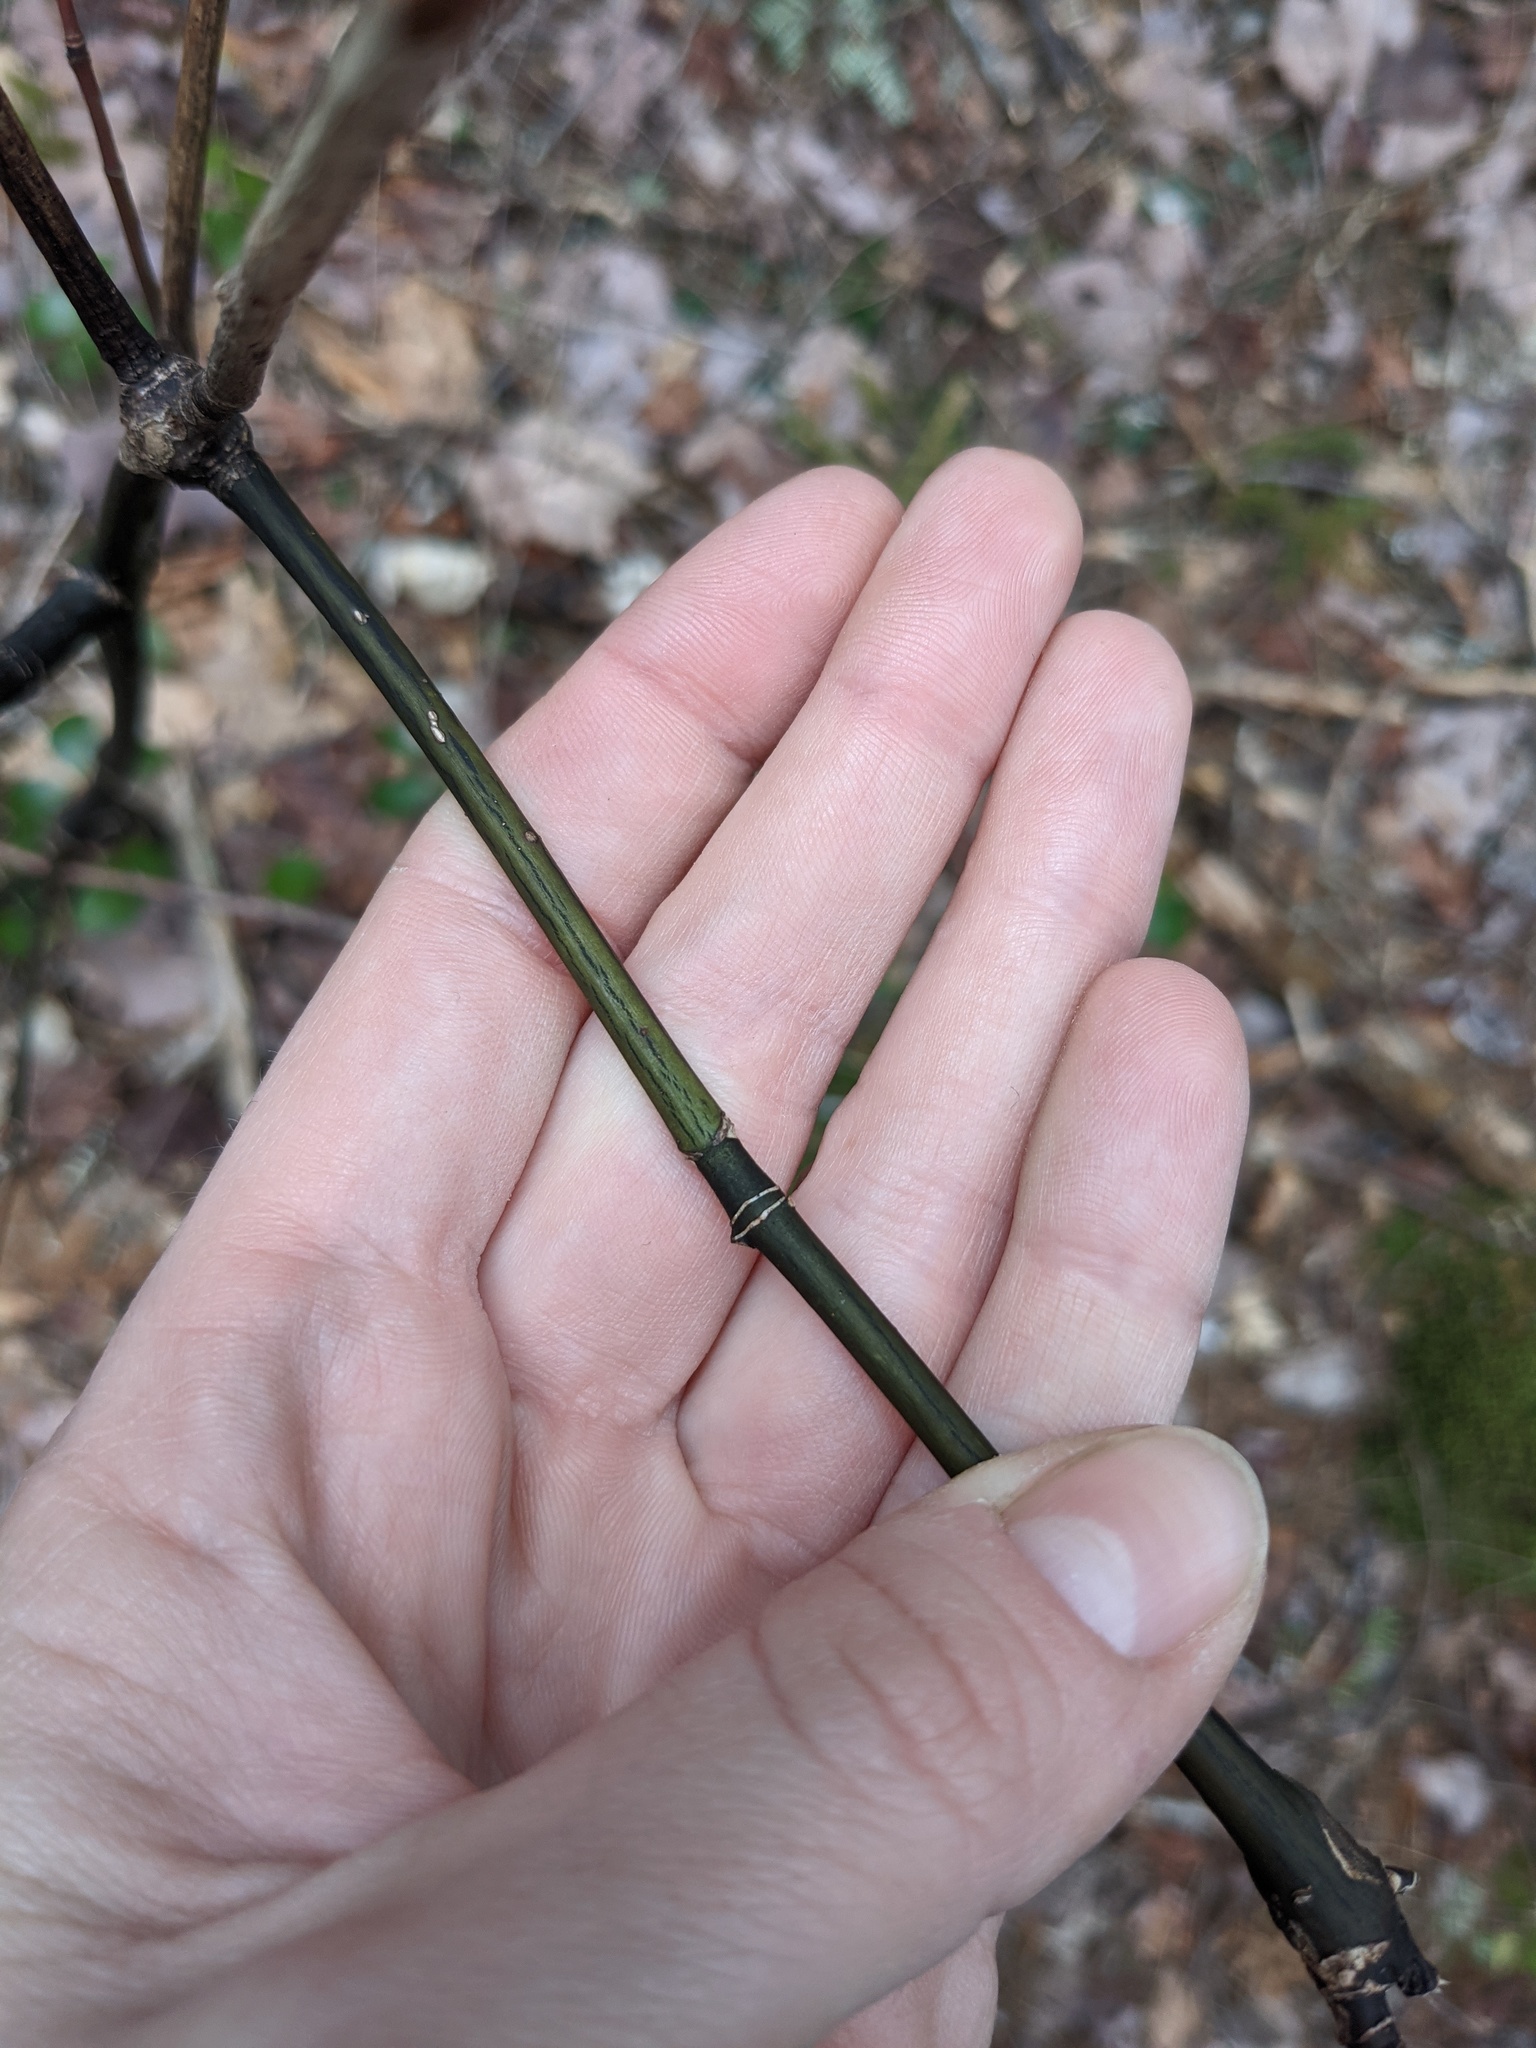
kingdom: Plantae
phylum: Tracheophyta
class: Magnoliopsida
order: Sapindales
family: Sapindaceae
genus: Acer
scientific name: Acer pensylvanicum
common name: Moosewood
